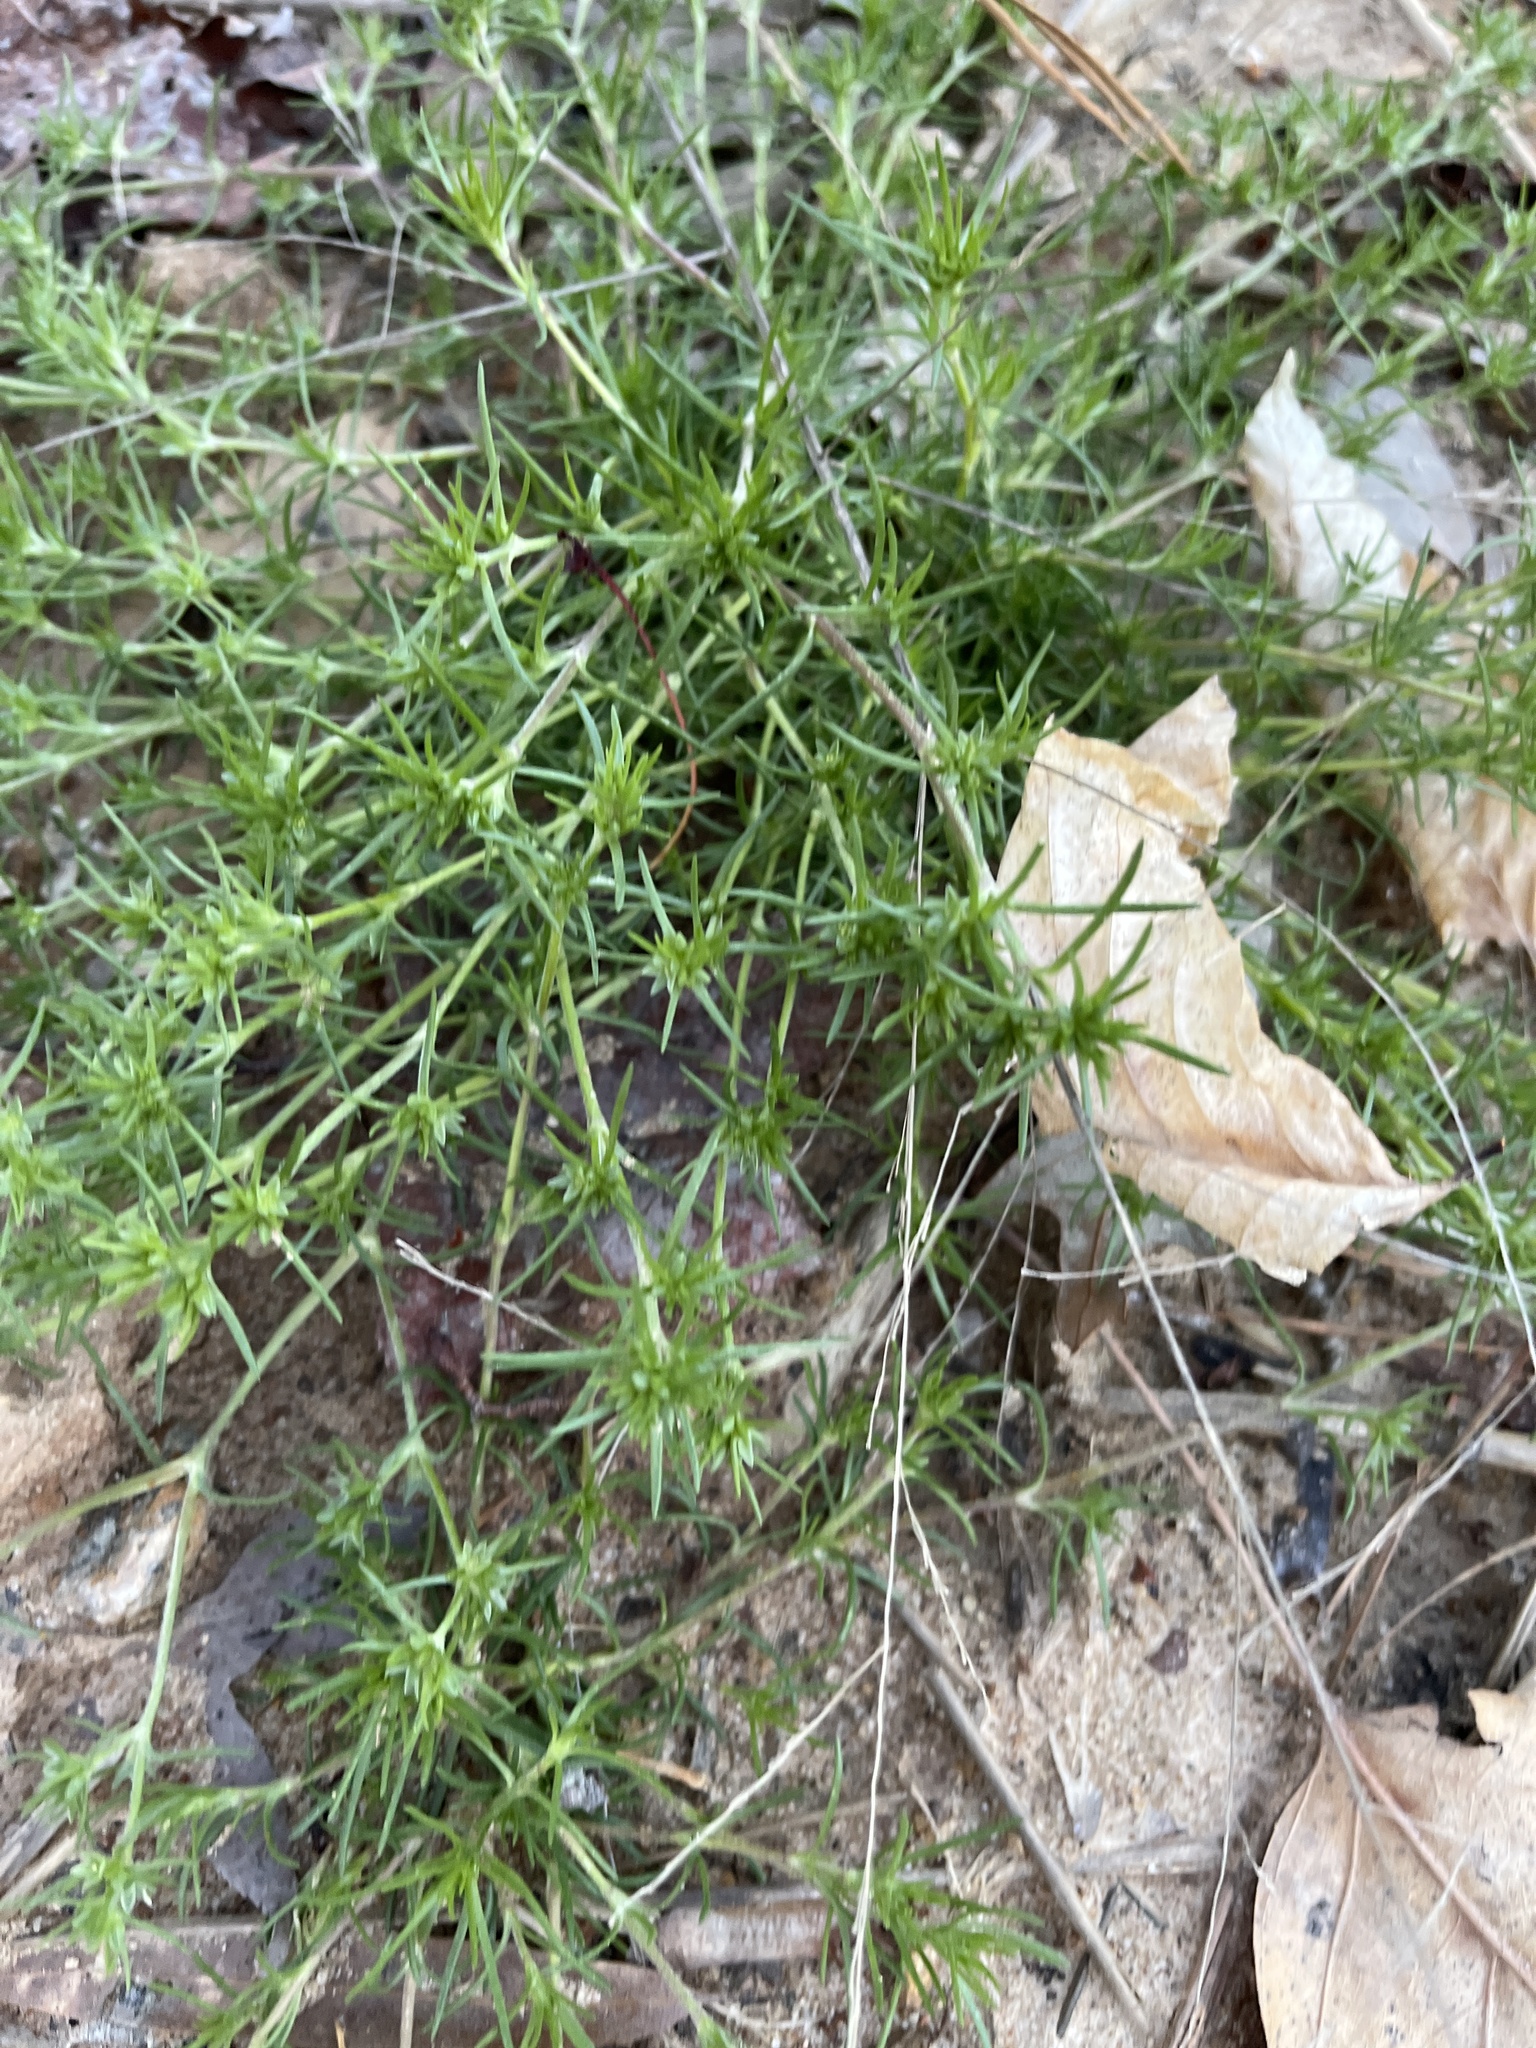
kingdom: Plantae
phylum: Tracheophyta
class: Magnoliopsida
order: Caryophyllales
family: Caryophyllaceae
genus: Scleranthus
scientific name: Scleranthus annuus
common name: Annual knawel
